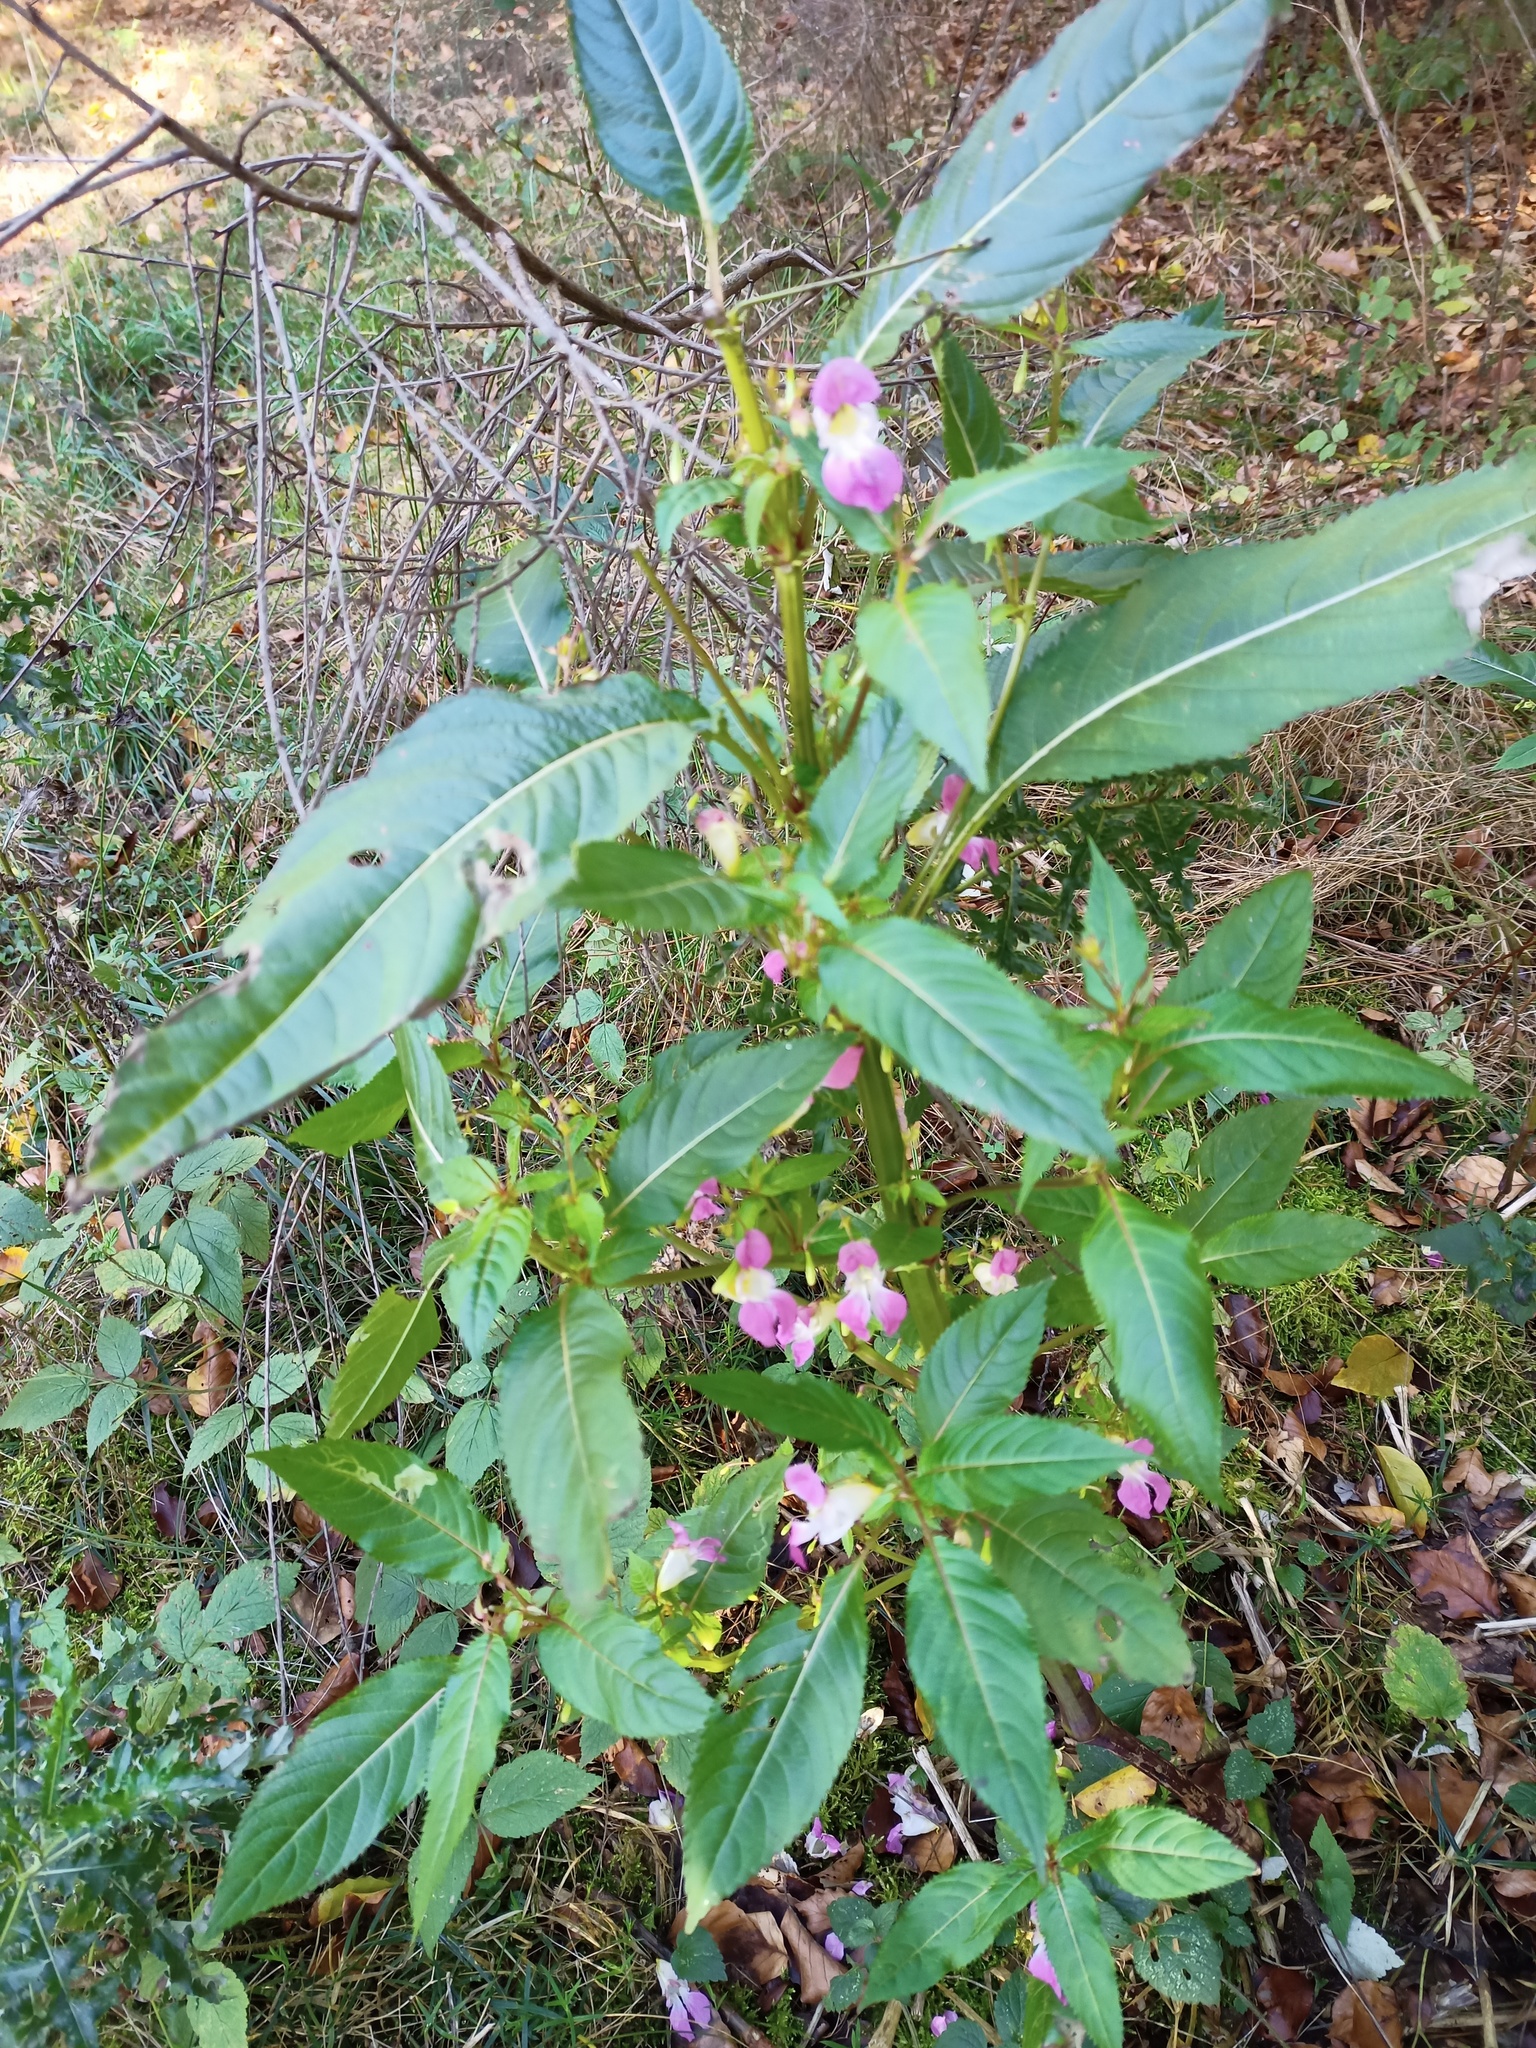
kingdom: Plantae
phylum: Tracheophyta
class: Magnoliopsida
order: Ericales
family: Balsaminaceae
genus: Impatiens
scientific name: Impatiens glandulifera
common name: Himalayan balsam
